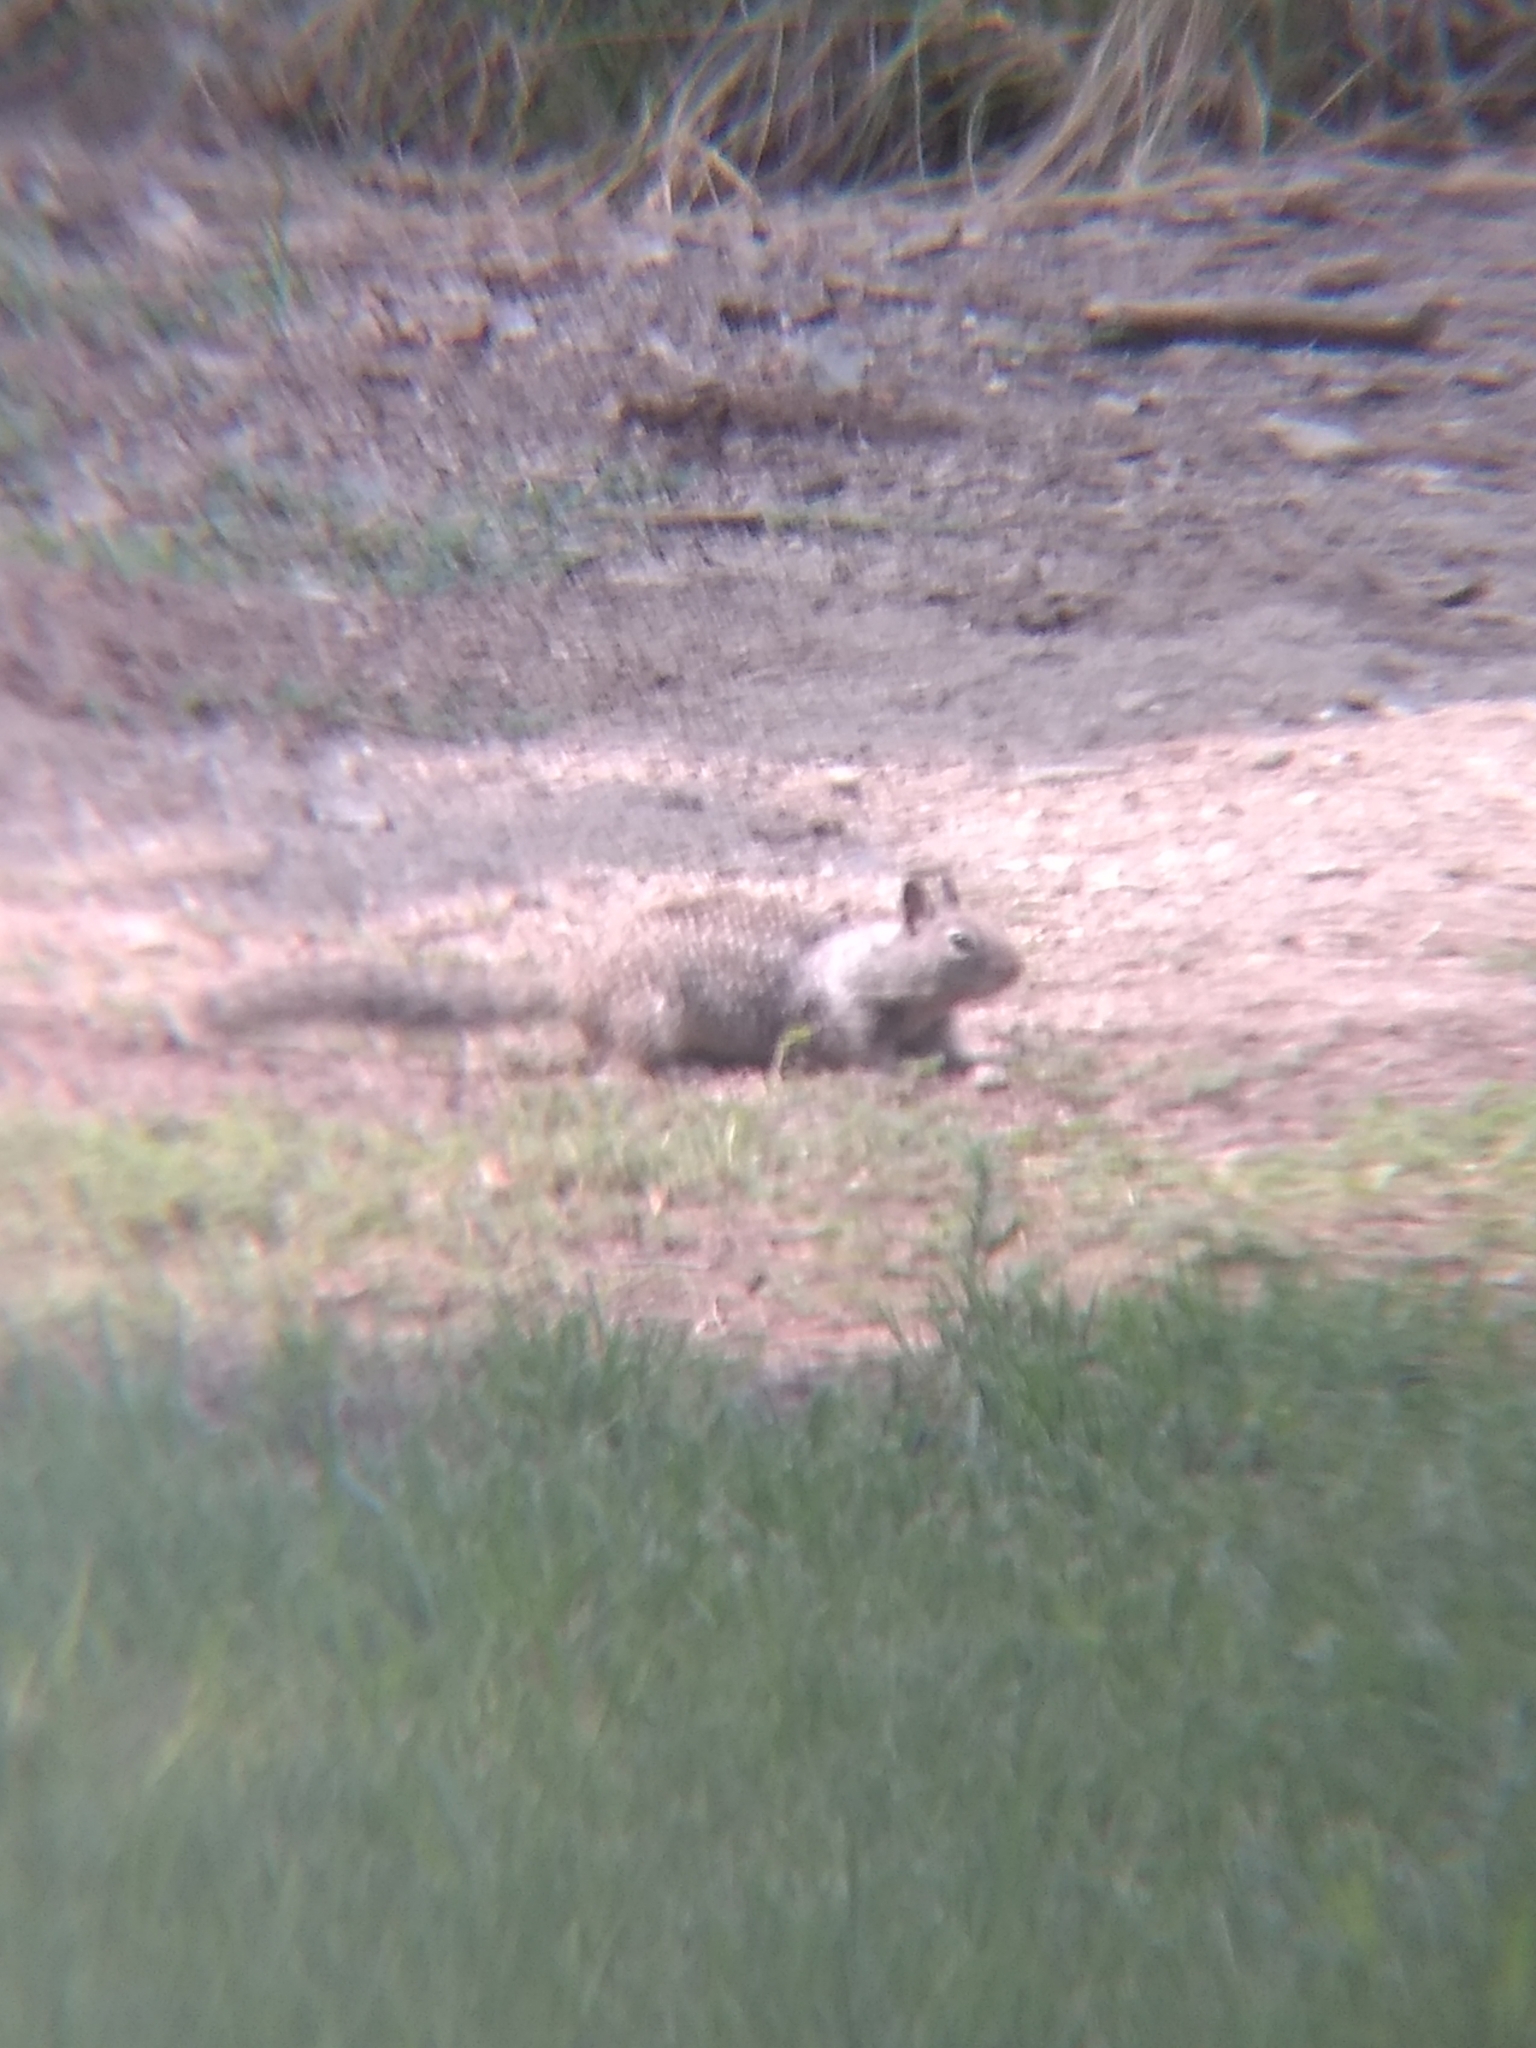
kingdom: Animalia
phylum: Chordata
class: Mammalia
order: Rodentia
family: Sciuridae
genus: Otospermophilus
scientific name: Otospermophilus beecheyi
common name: California ground squirrel
